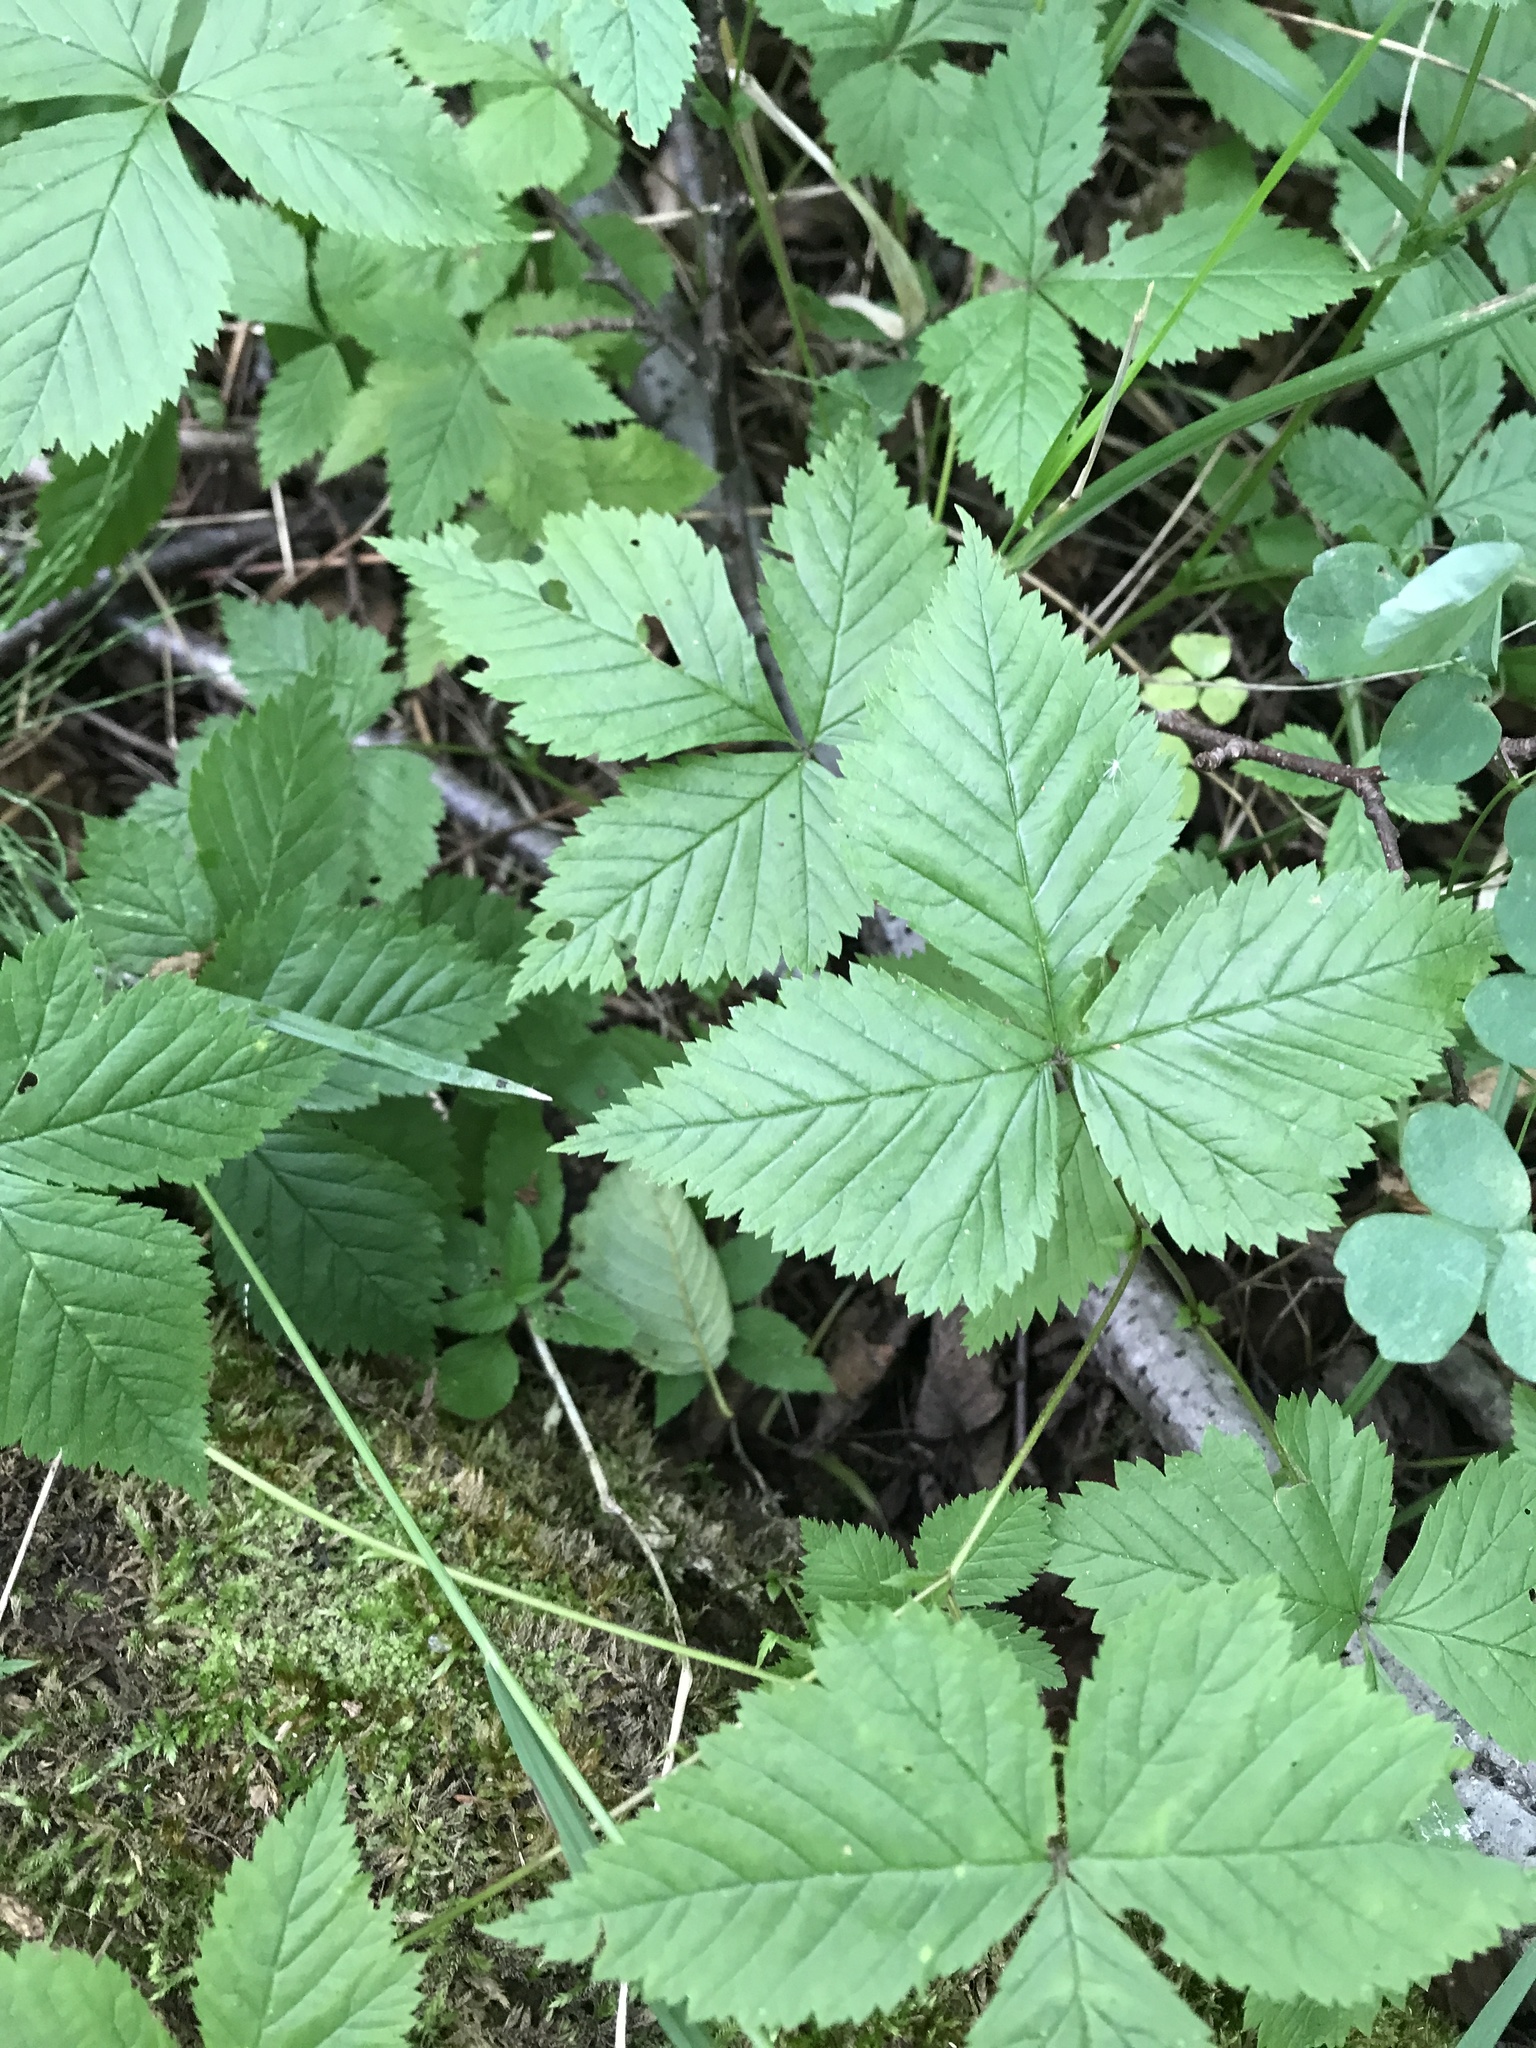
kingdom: Plantae
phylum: Tracheophyta
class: Magnoliopsida
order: Rosales
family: Rosaceae
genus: Rubus
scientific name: Rubus pubescens
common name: Dwarf raspberry
